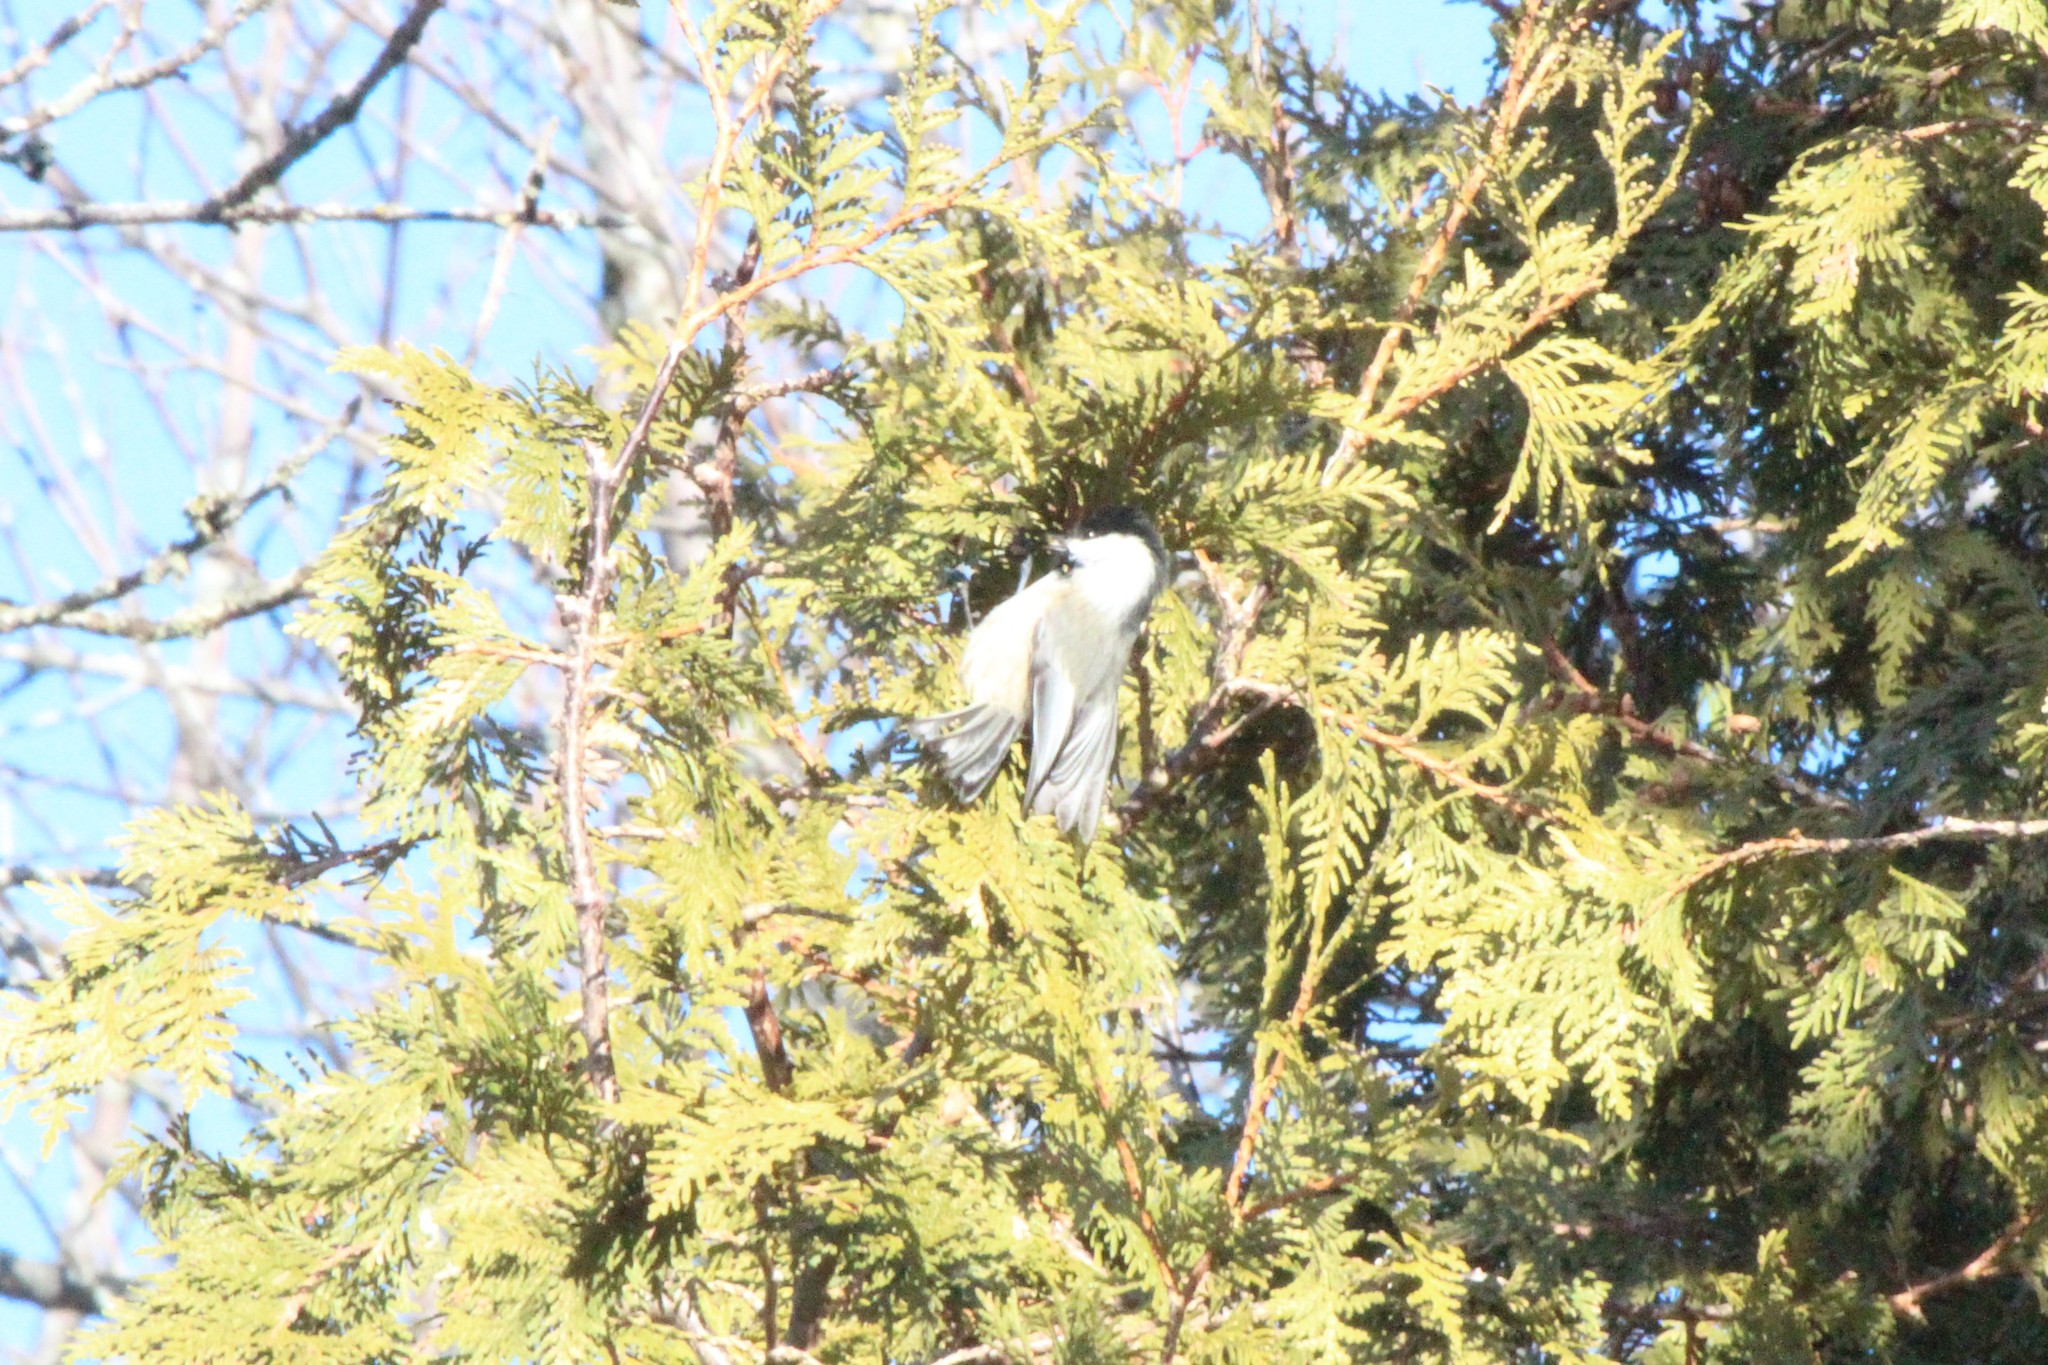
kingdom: Animalia
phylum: Chordata
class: Aves
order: Passeriformes
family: Paridae
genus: Poecile
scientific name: Poecile atricapillus
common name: Black-capped chickadee
